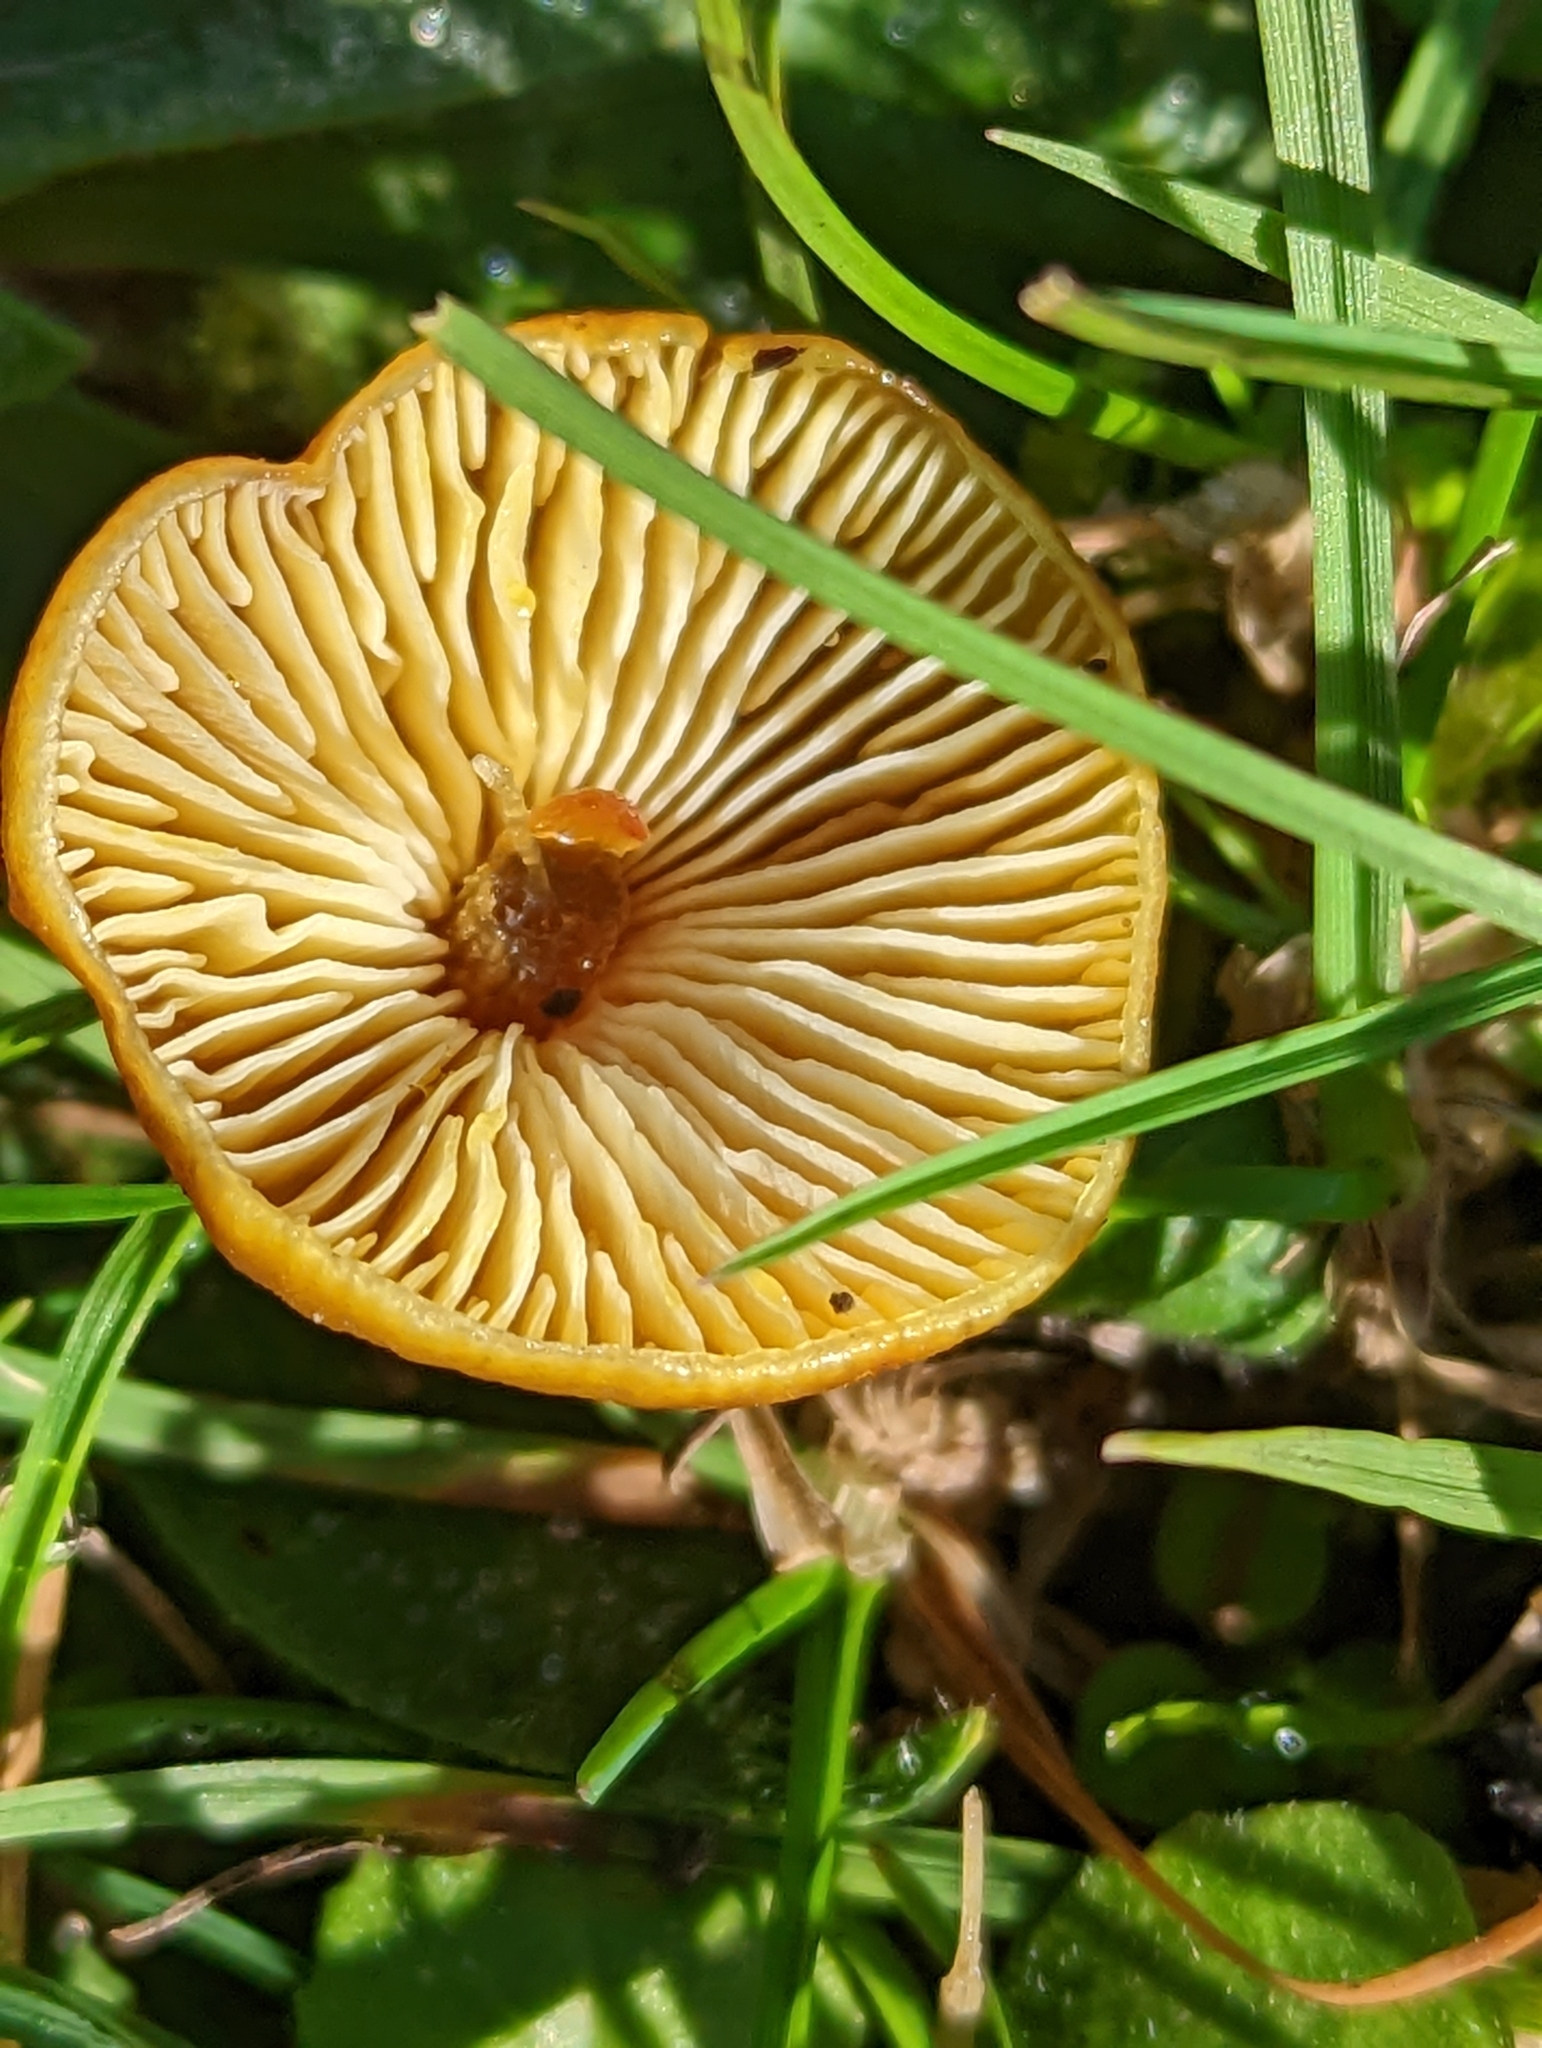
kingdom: Fungi
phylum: Basidiomycota
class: Agaricomycetes
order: Agaricales
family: Hygrophoraceae
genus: Hygrocybe
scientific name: Hygrocybe conica
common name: Blackening wax-cap
